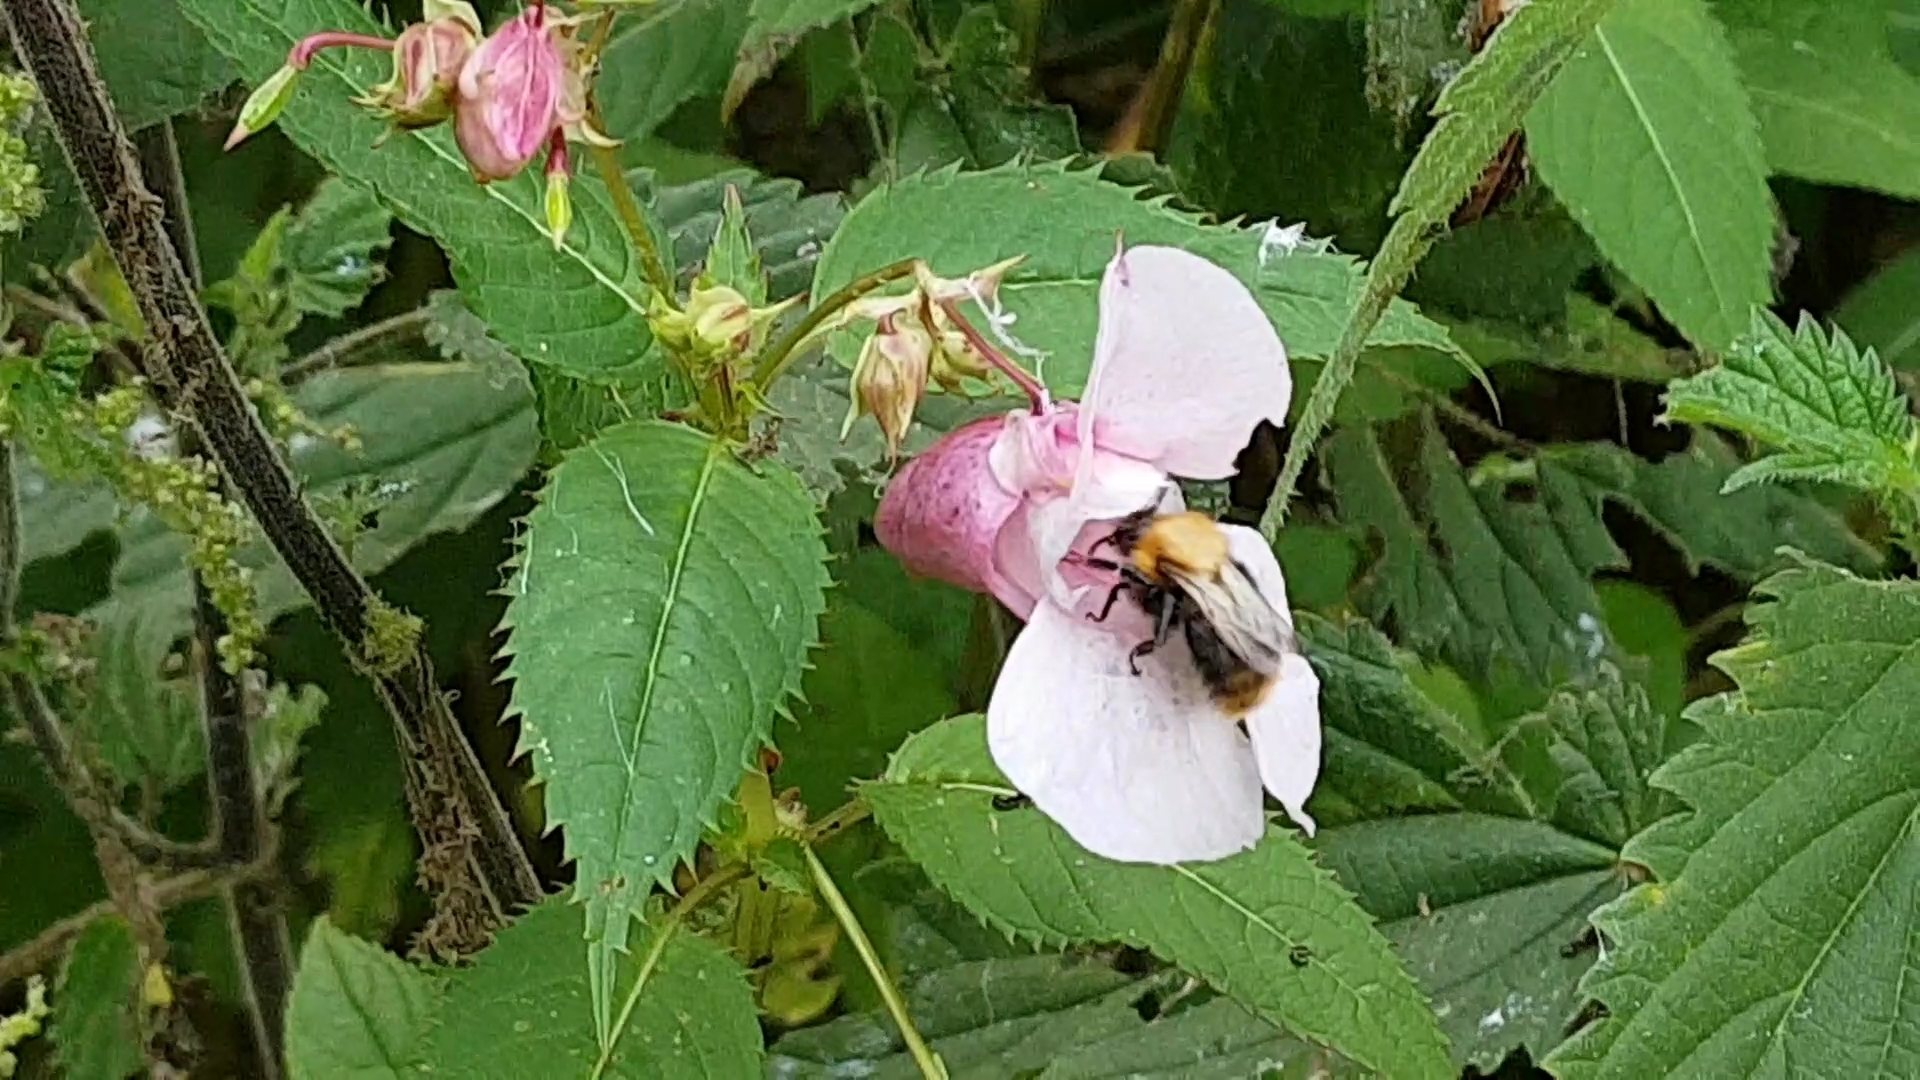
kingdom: Animalia
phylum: Arthropoda
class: Insecta
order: Hymenoptera
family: Apidae
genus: Bombus
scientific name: Bombus pascuorum
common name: Common carder bee
